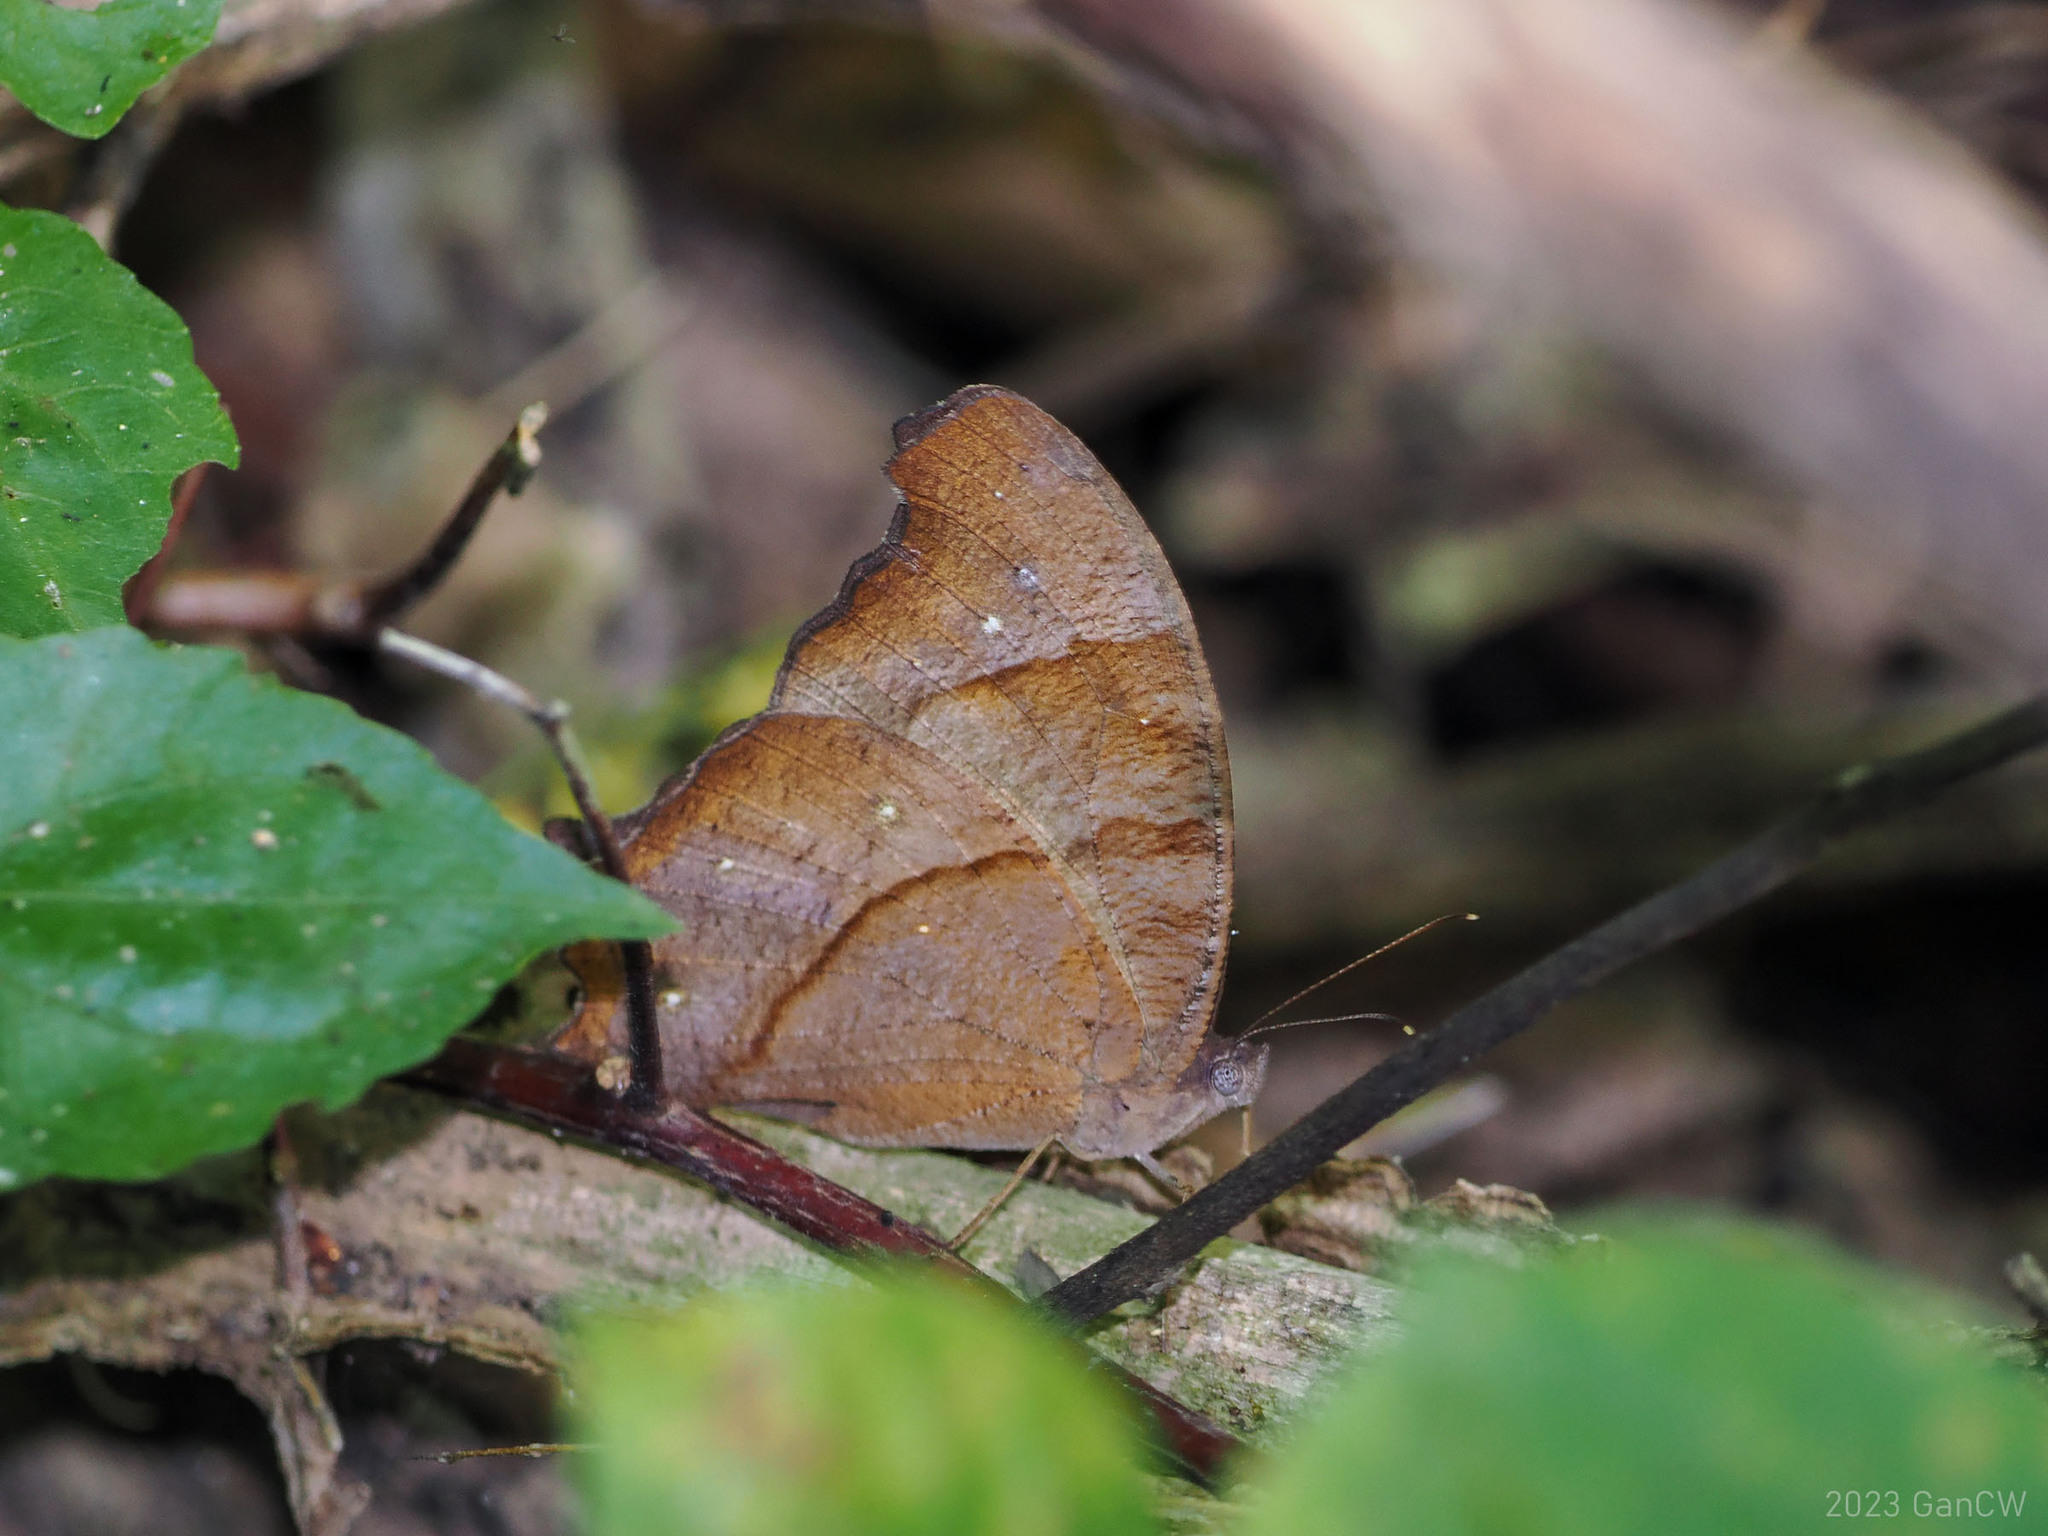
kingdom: Animalia
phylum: Arthropoda
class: Insecta
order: Lepidoptera
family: Nymphalidae
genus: Melanitis
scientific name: Melanitis leda
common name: Twilight brown
